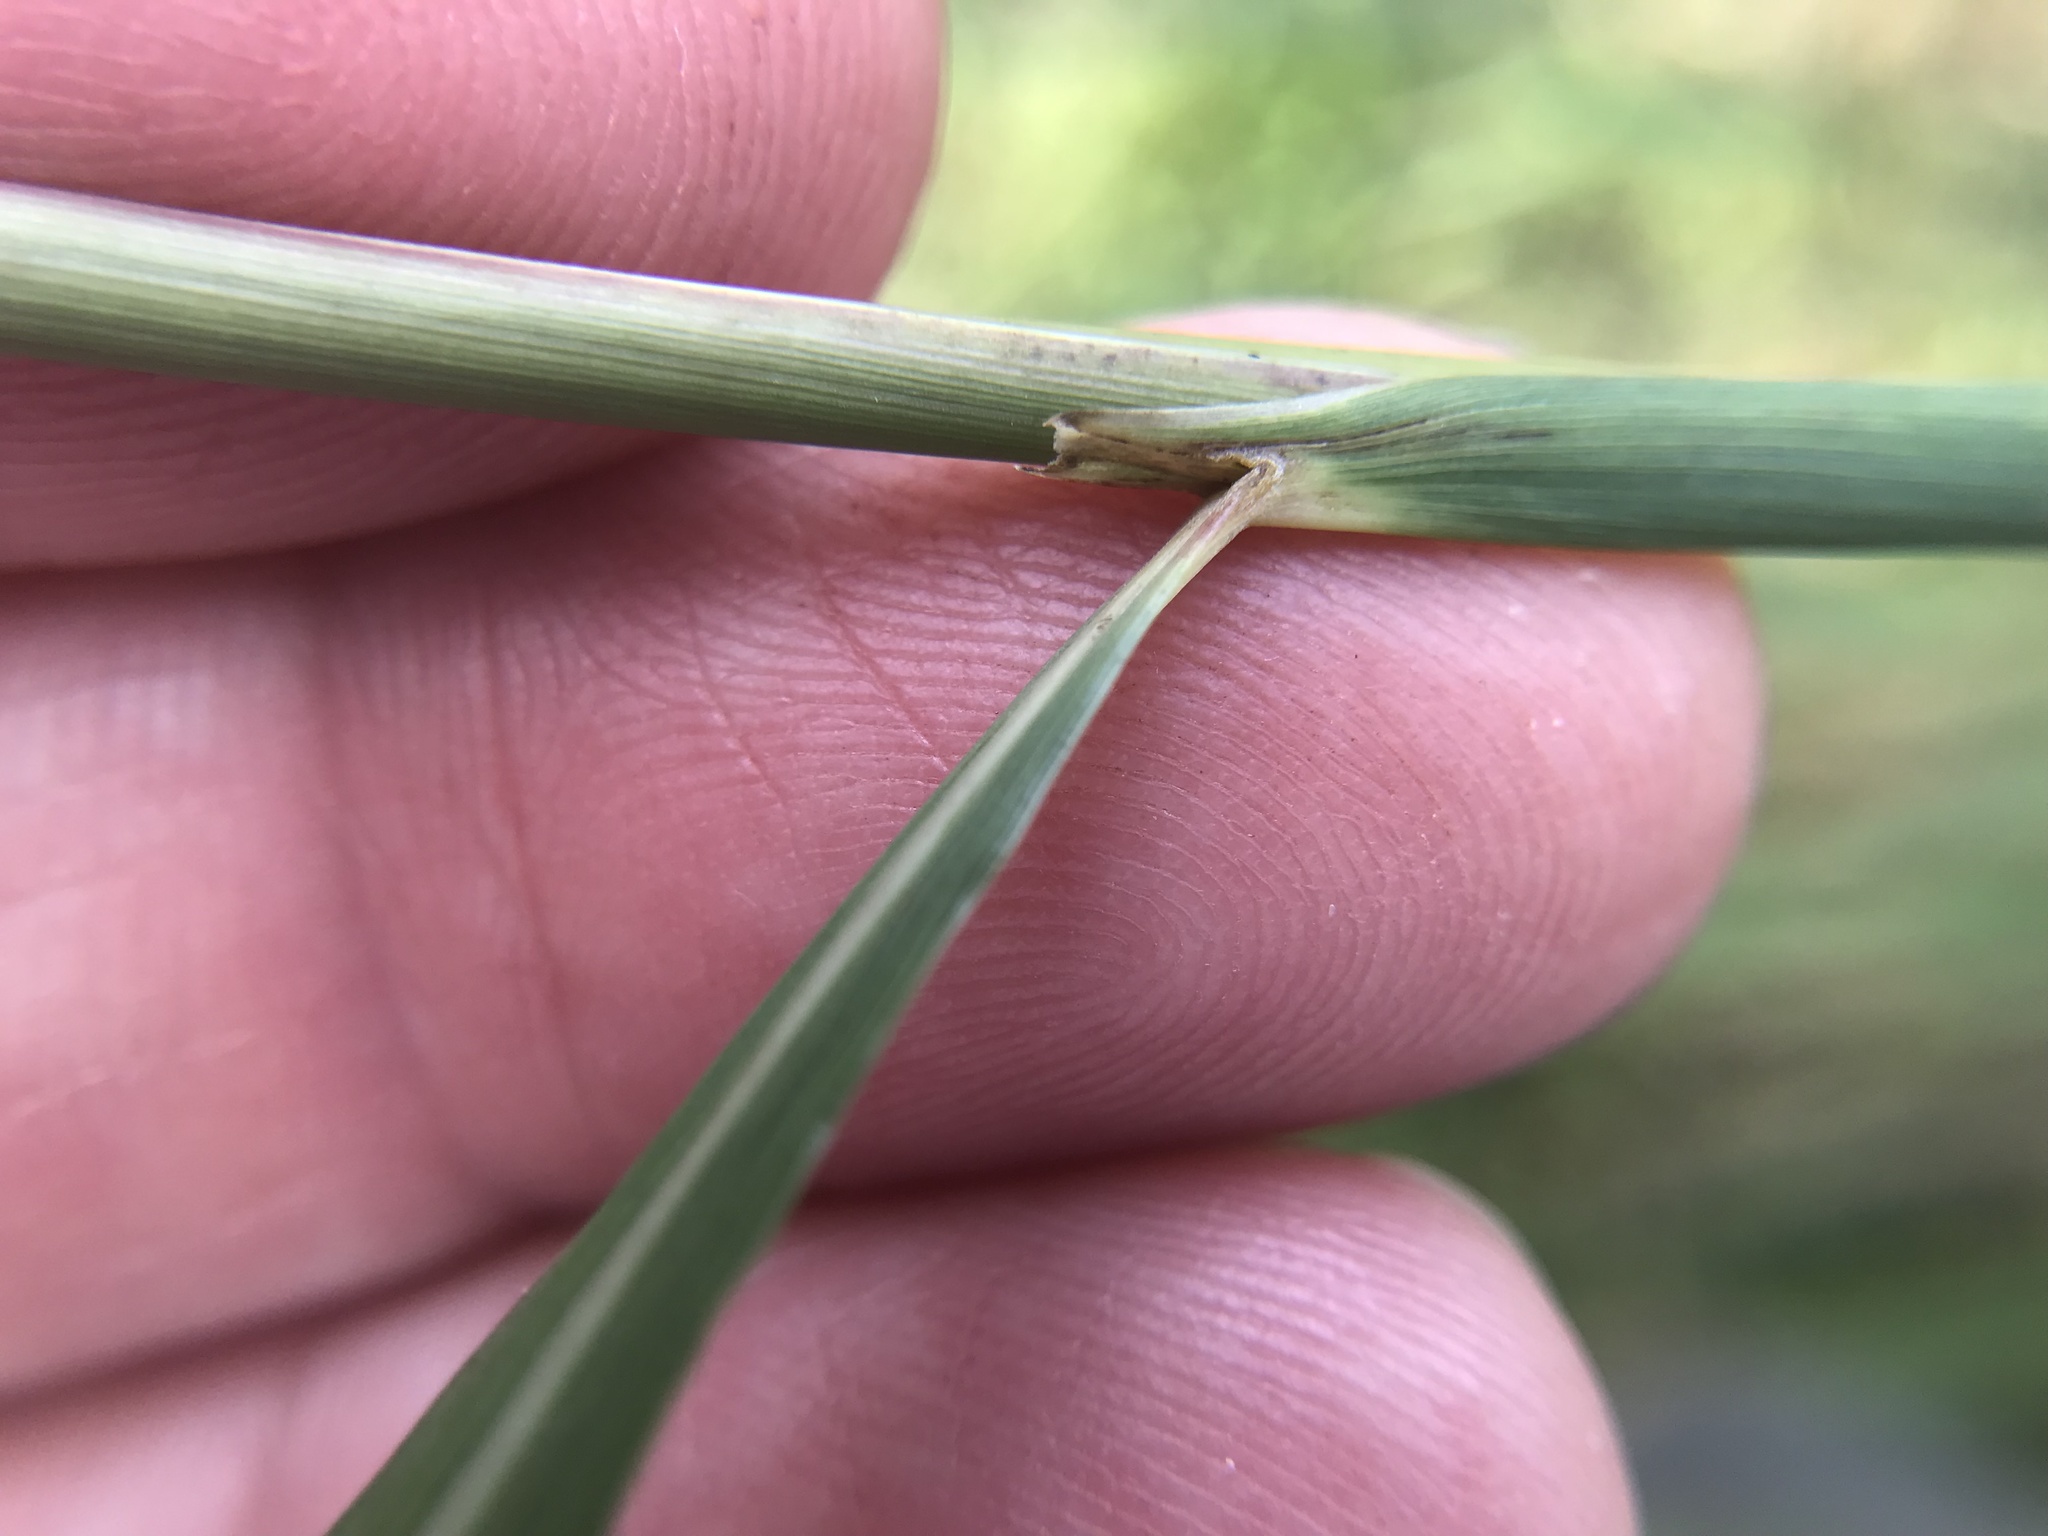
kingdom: Plantae
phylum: Tracheophyta
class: Liliopsida
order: Poales
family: Poaceae
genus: Sorghastrum
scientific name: Sorghastrum nutans
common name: Indian grass
